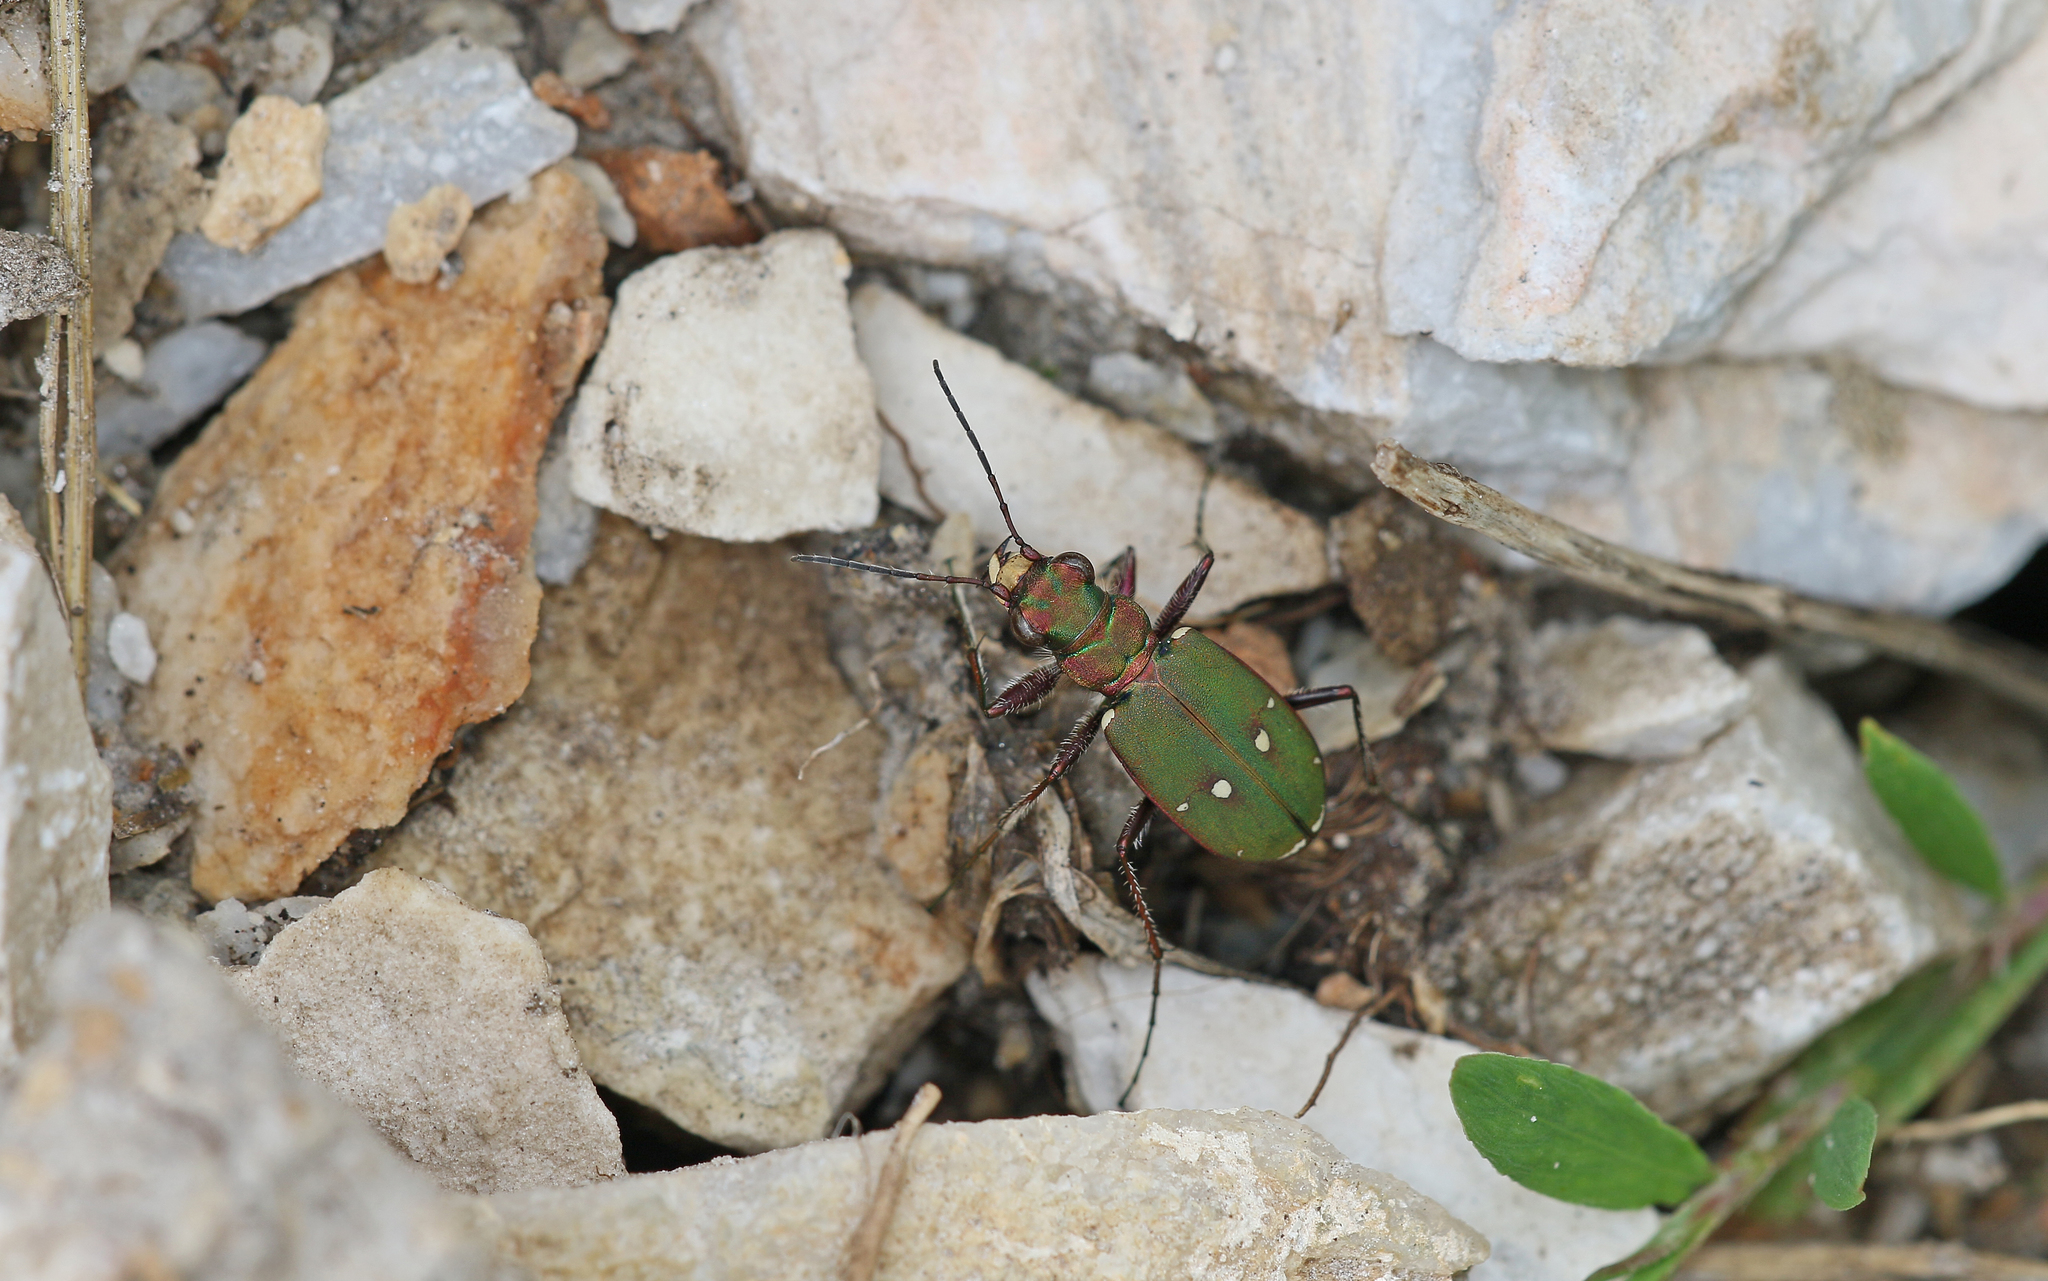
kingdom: Animalia
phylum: Arthropoda
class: Insecta
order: Coleoptera
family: Carabidae
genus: Cicindela
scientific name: Cicindela campestris
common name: Common tiger beetle
